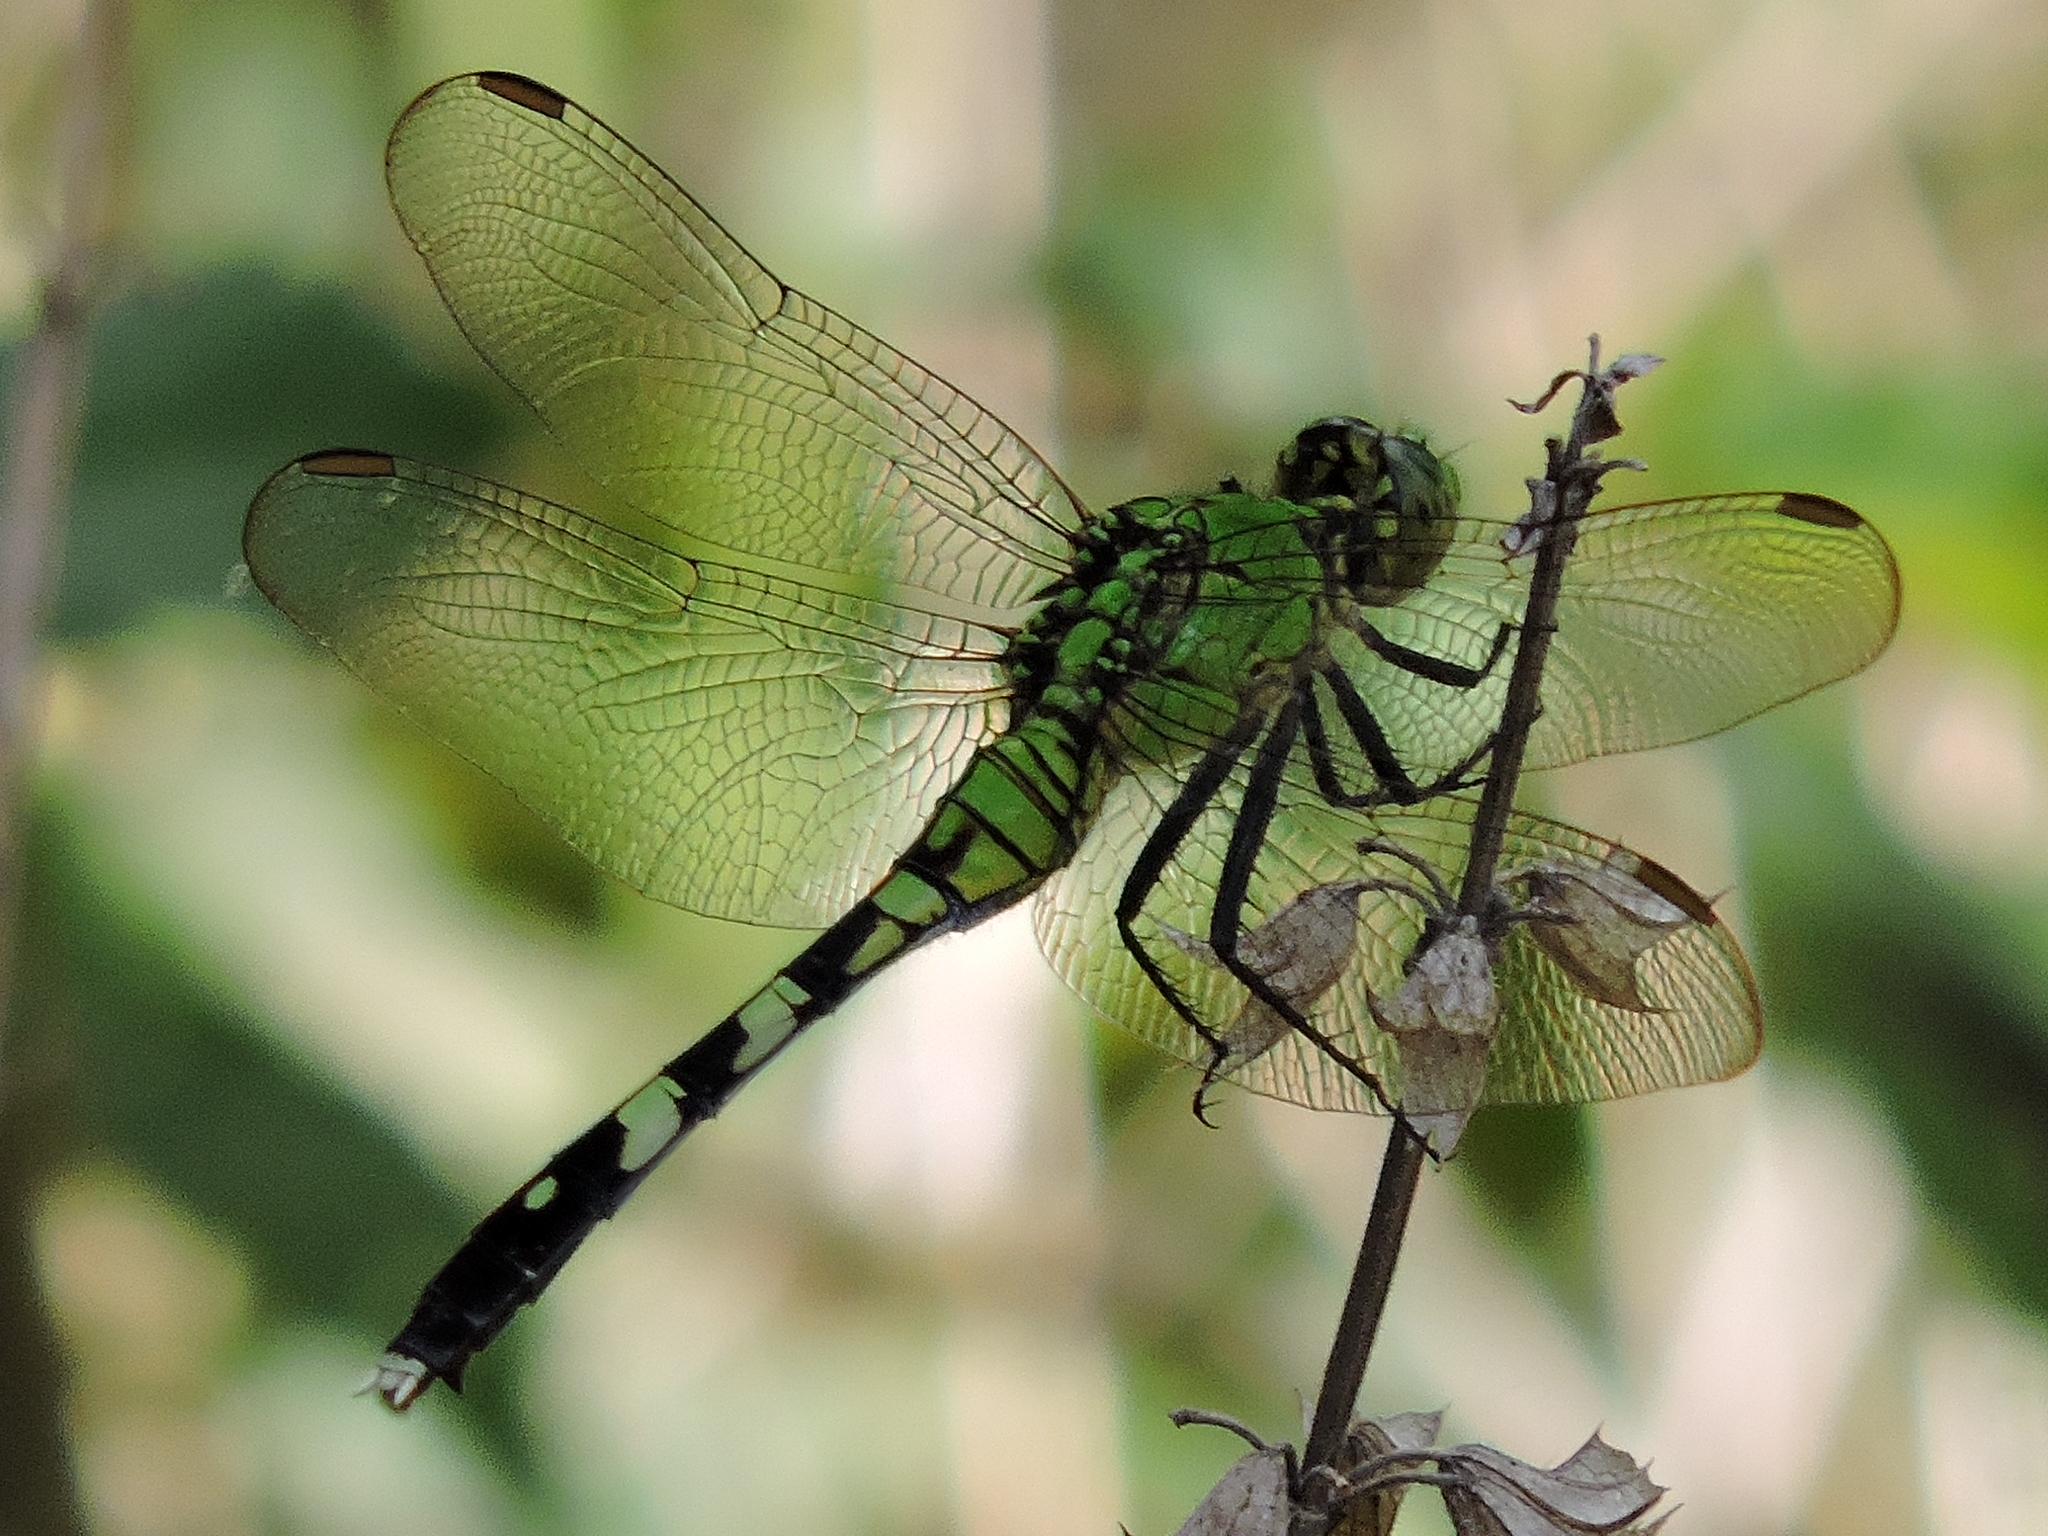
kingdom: Animalia
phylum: Arthropoda
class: Insecta
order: Odonata
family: Libellulidae
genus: Erythemis
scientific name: Erythemis simplicicollis
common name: Eastern pondhawk
